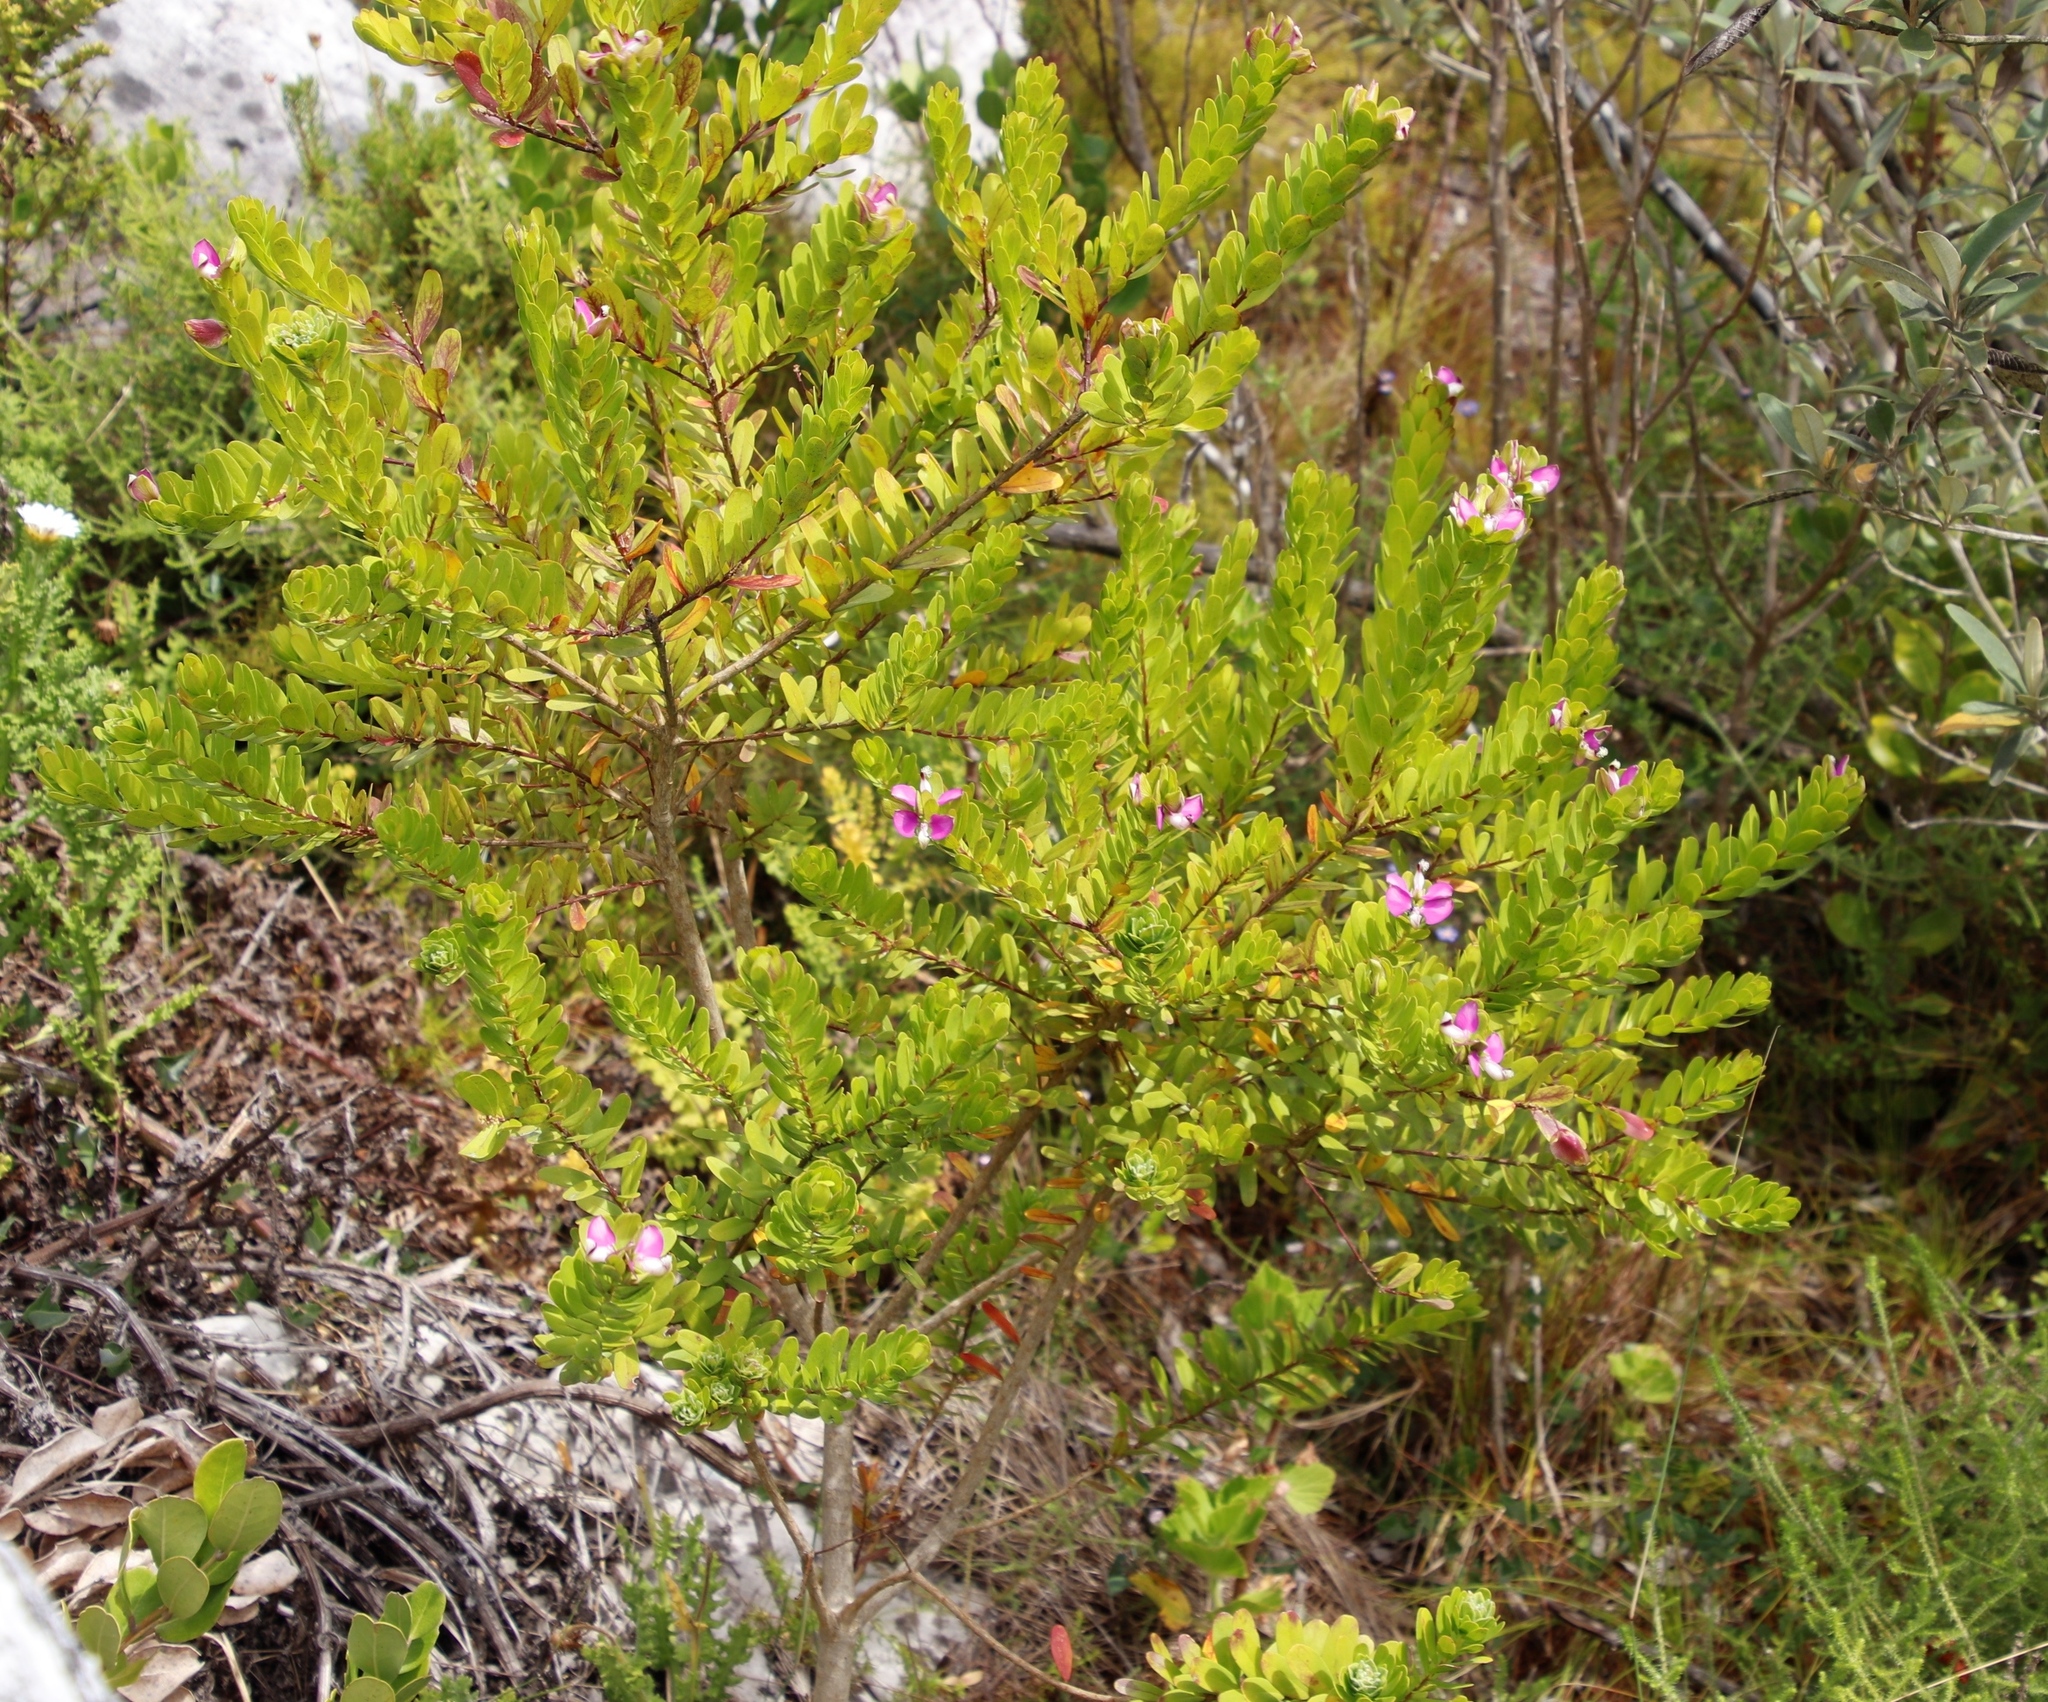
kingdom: Plantae
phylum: Tracheophyta
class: Magnoliopsida
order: Fabales
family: Polygalaceae
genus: Polygala
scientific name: Polygala myrtifolia
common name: Myrtle-leaf milkwort
